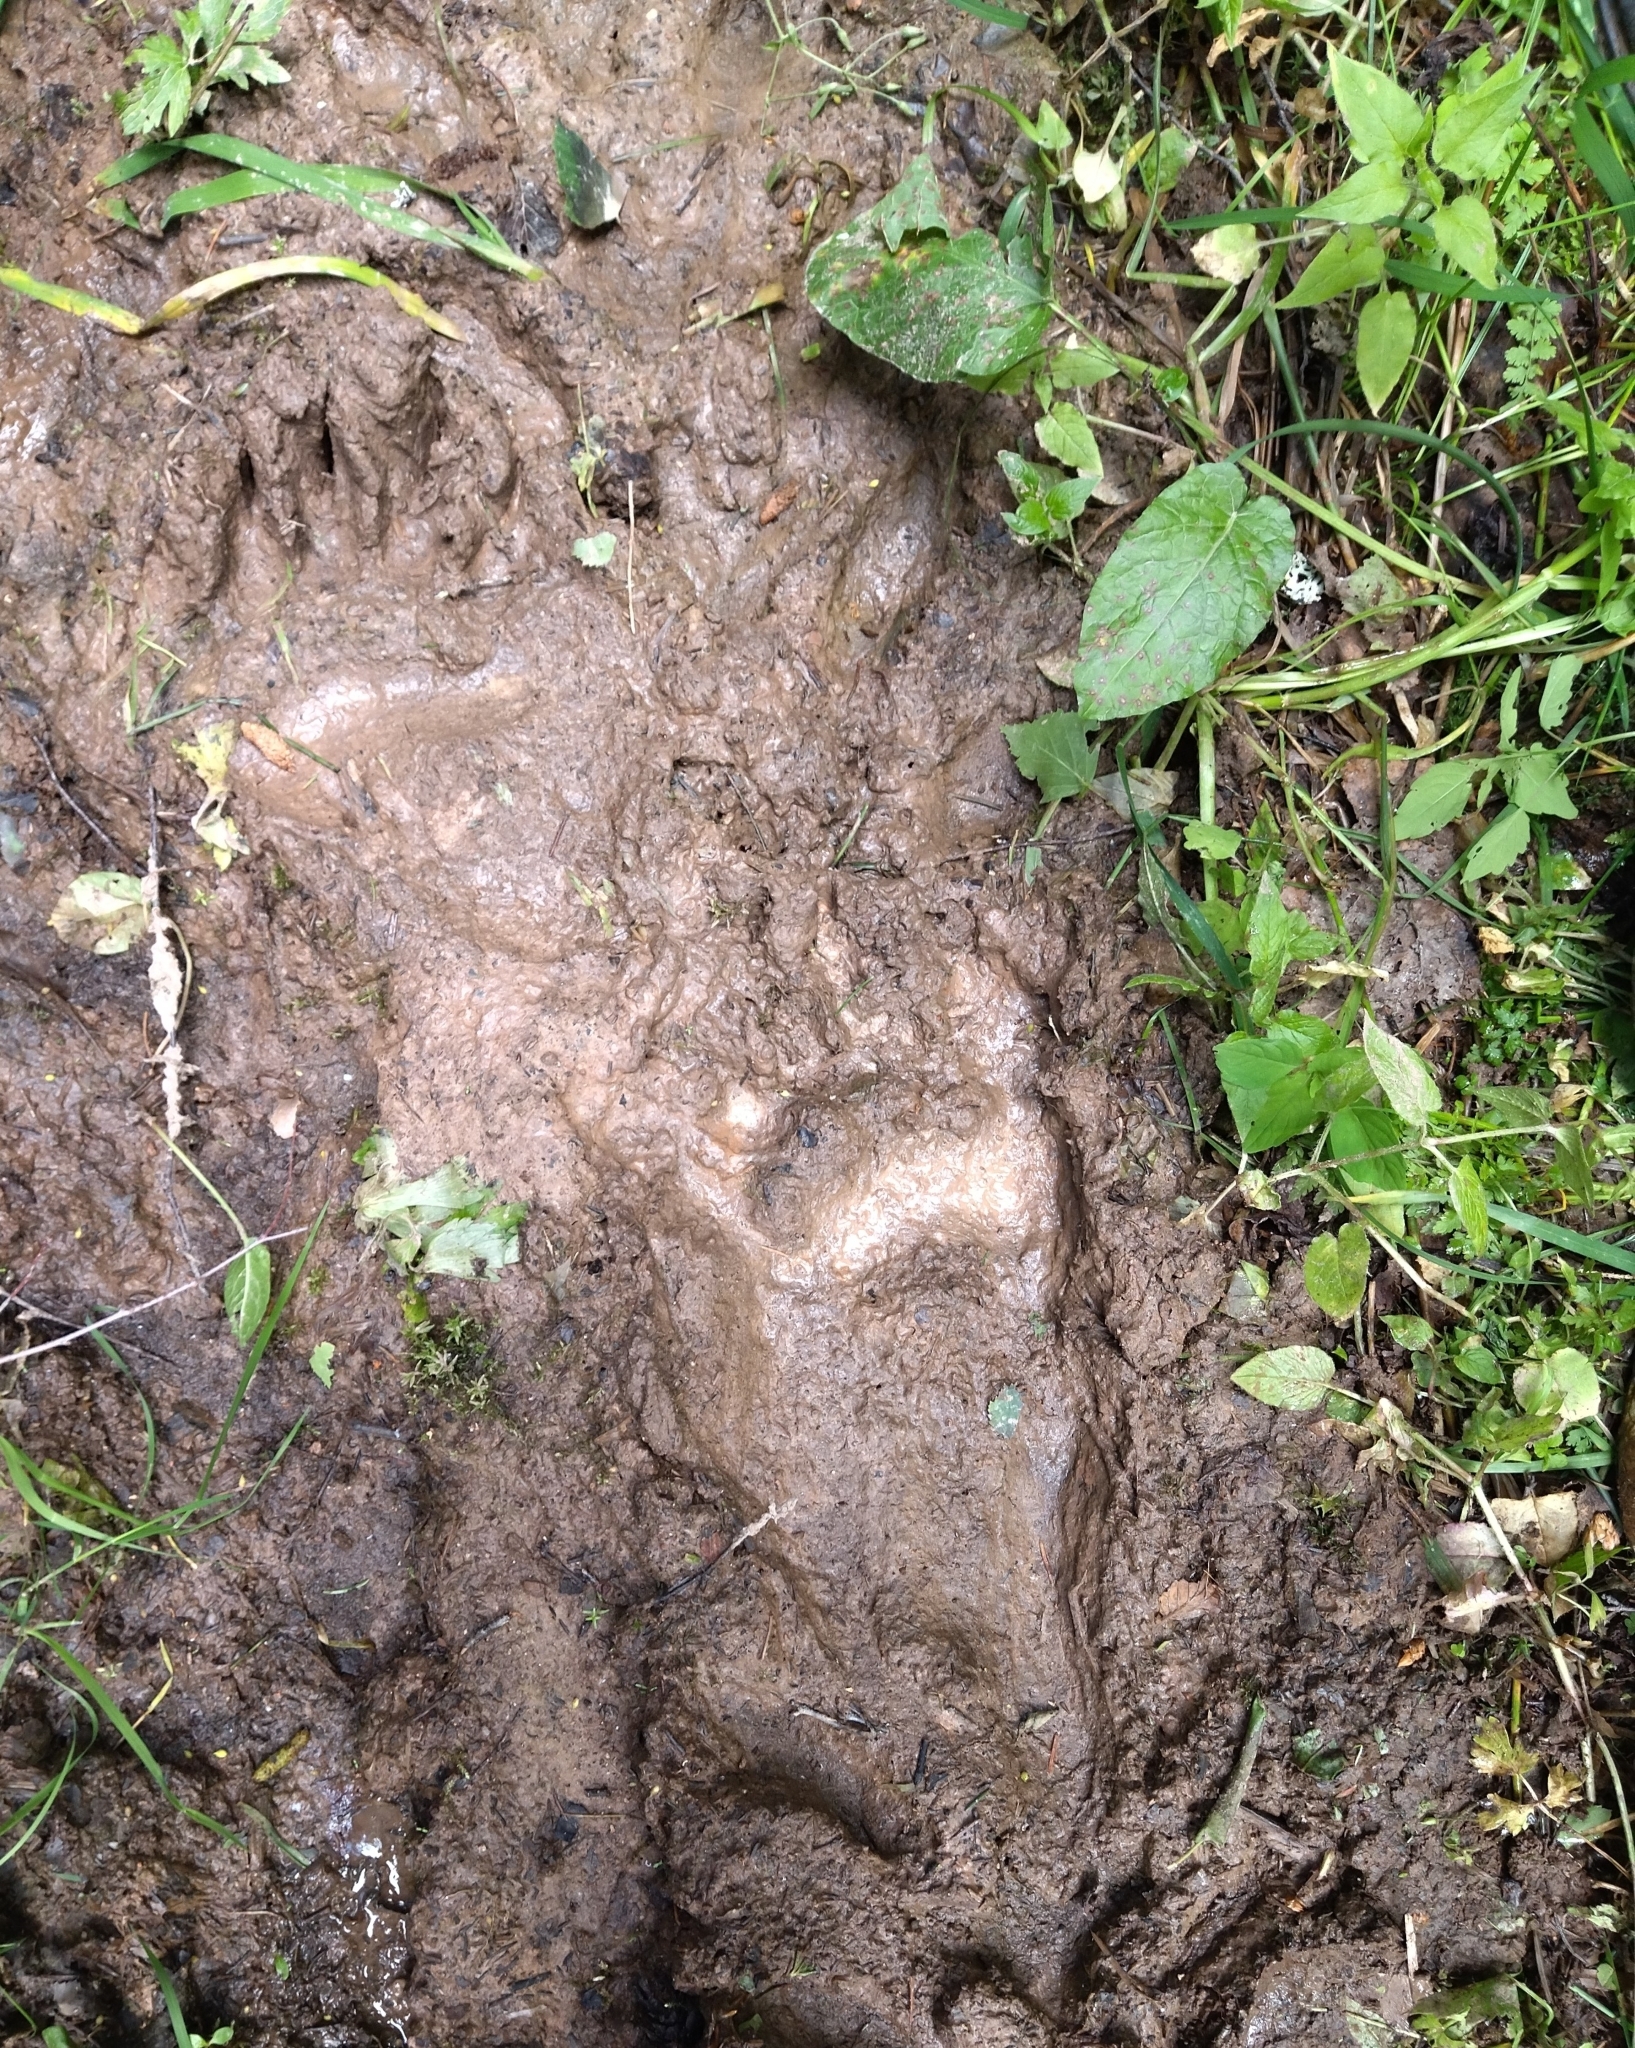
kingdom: Animalia
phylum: Chordata
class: Mammalia
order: Carnivora
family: Ursidae
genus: Ursus
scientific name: Ursus arctos
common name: Brown bear
